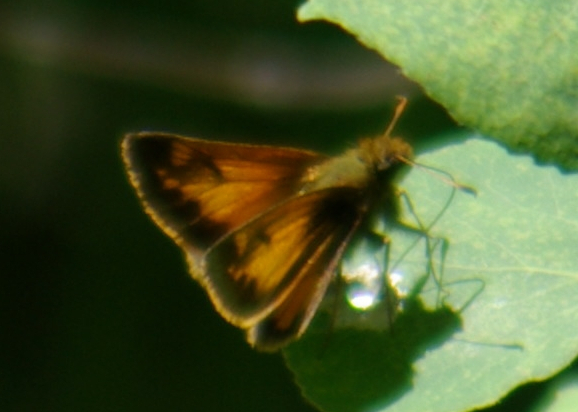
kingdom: Animalia
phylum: Arthropoda
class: Insecta
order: Lepidoptera
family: Hesperiidae
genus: Lon
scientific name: Lon hobomok
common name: Hobomok skipper
